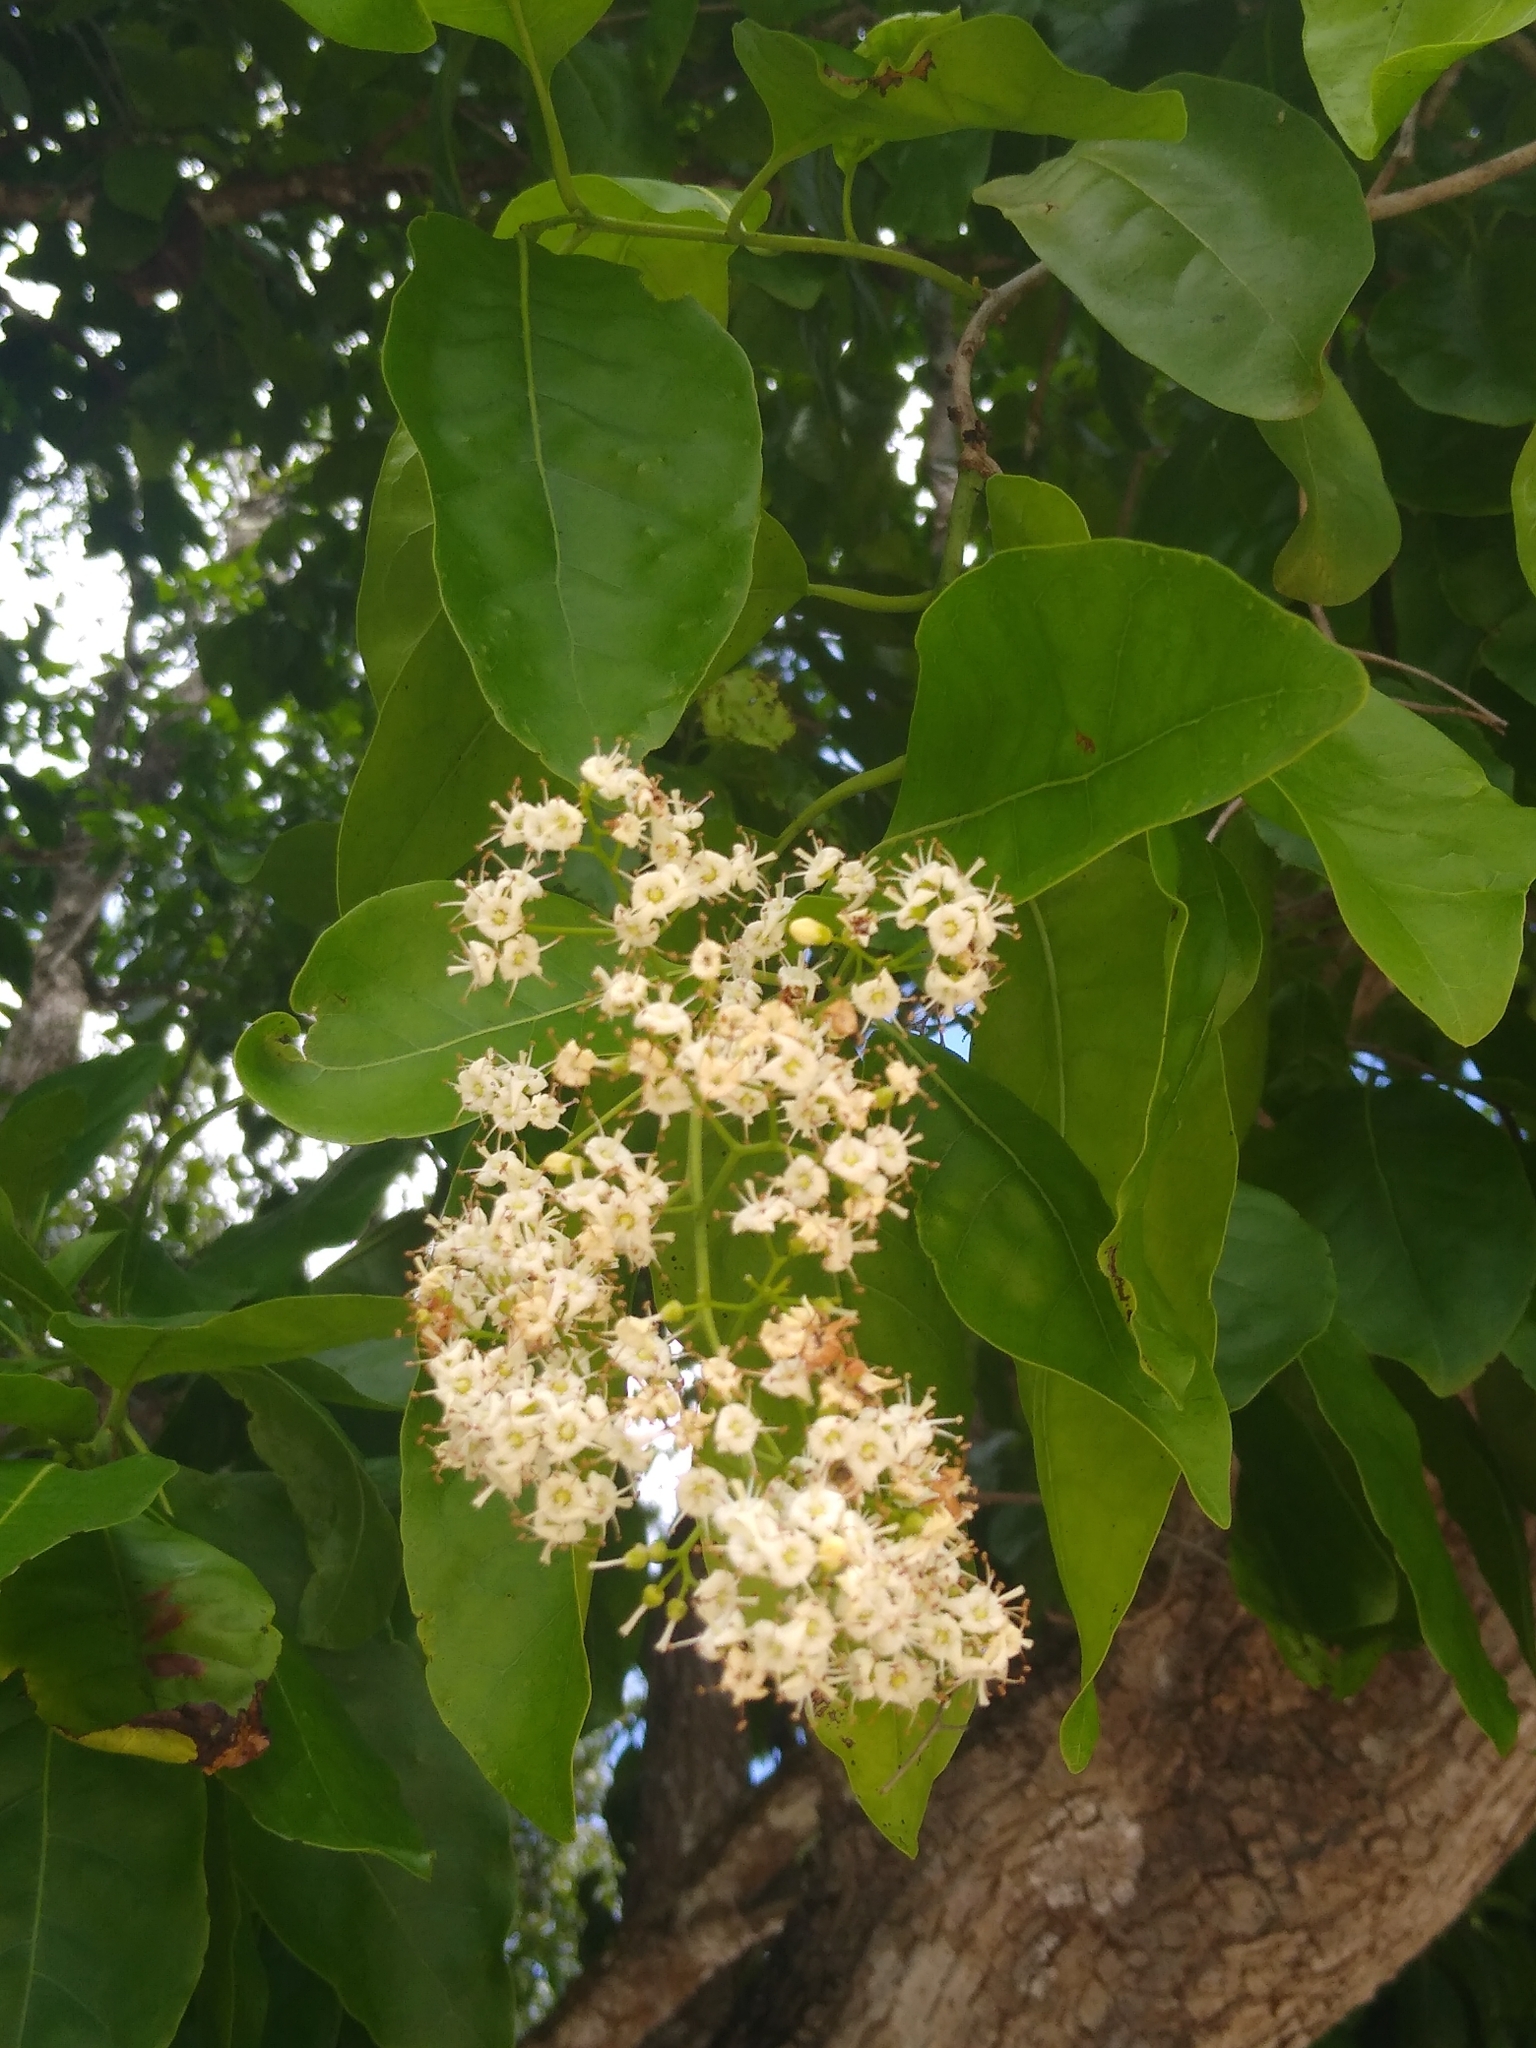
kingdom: Plantae
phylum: Tracheophyta
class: Magnoliopsida
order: Boraginales
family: Ehretiaceae
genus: Ehretia
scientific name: Ehretia tinifolia
